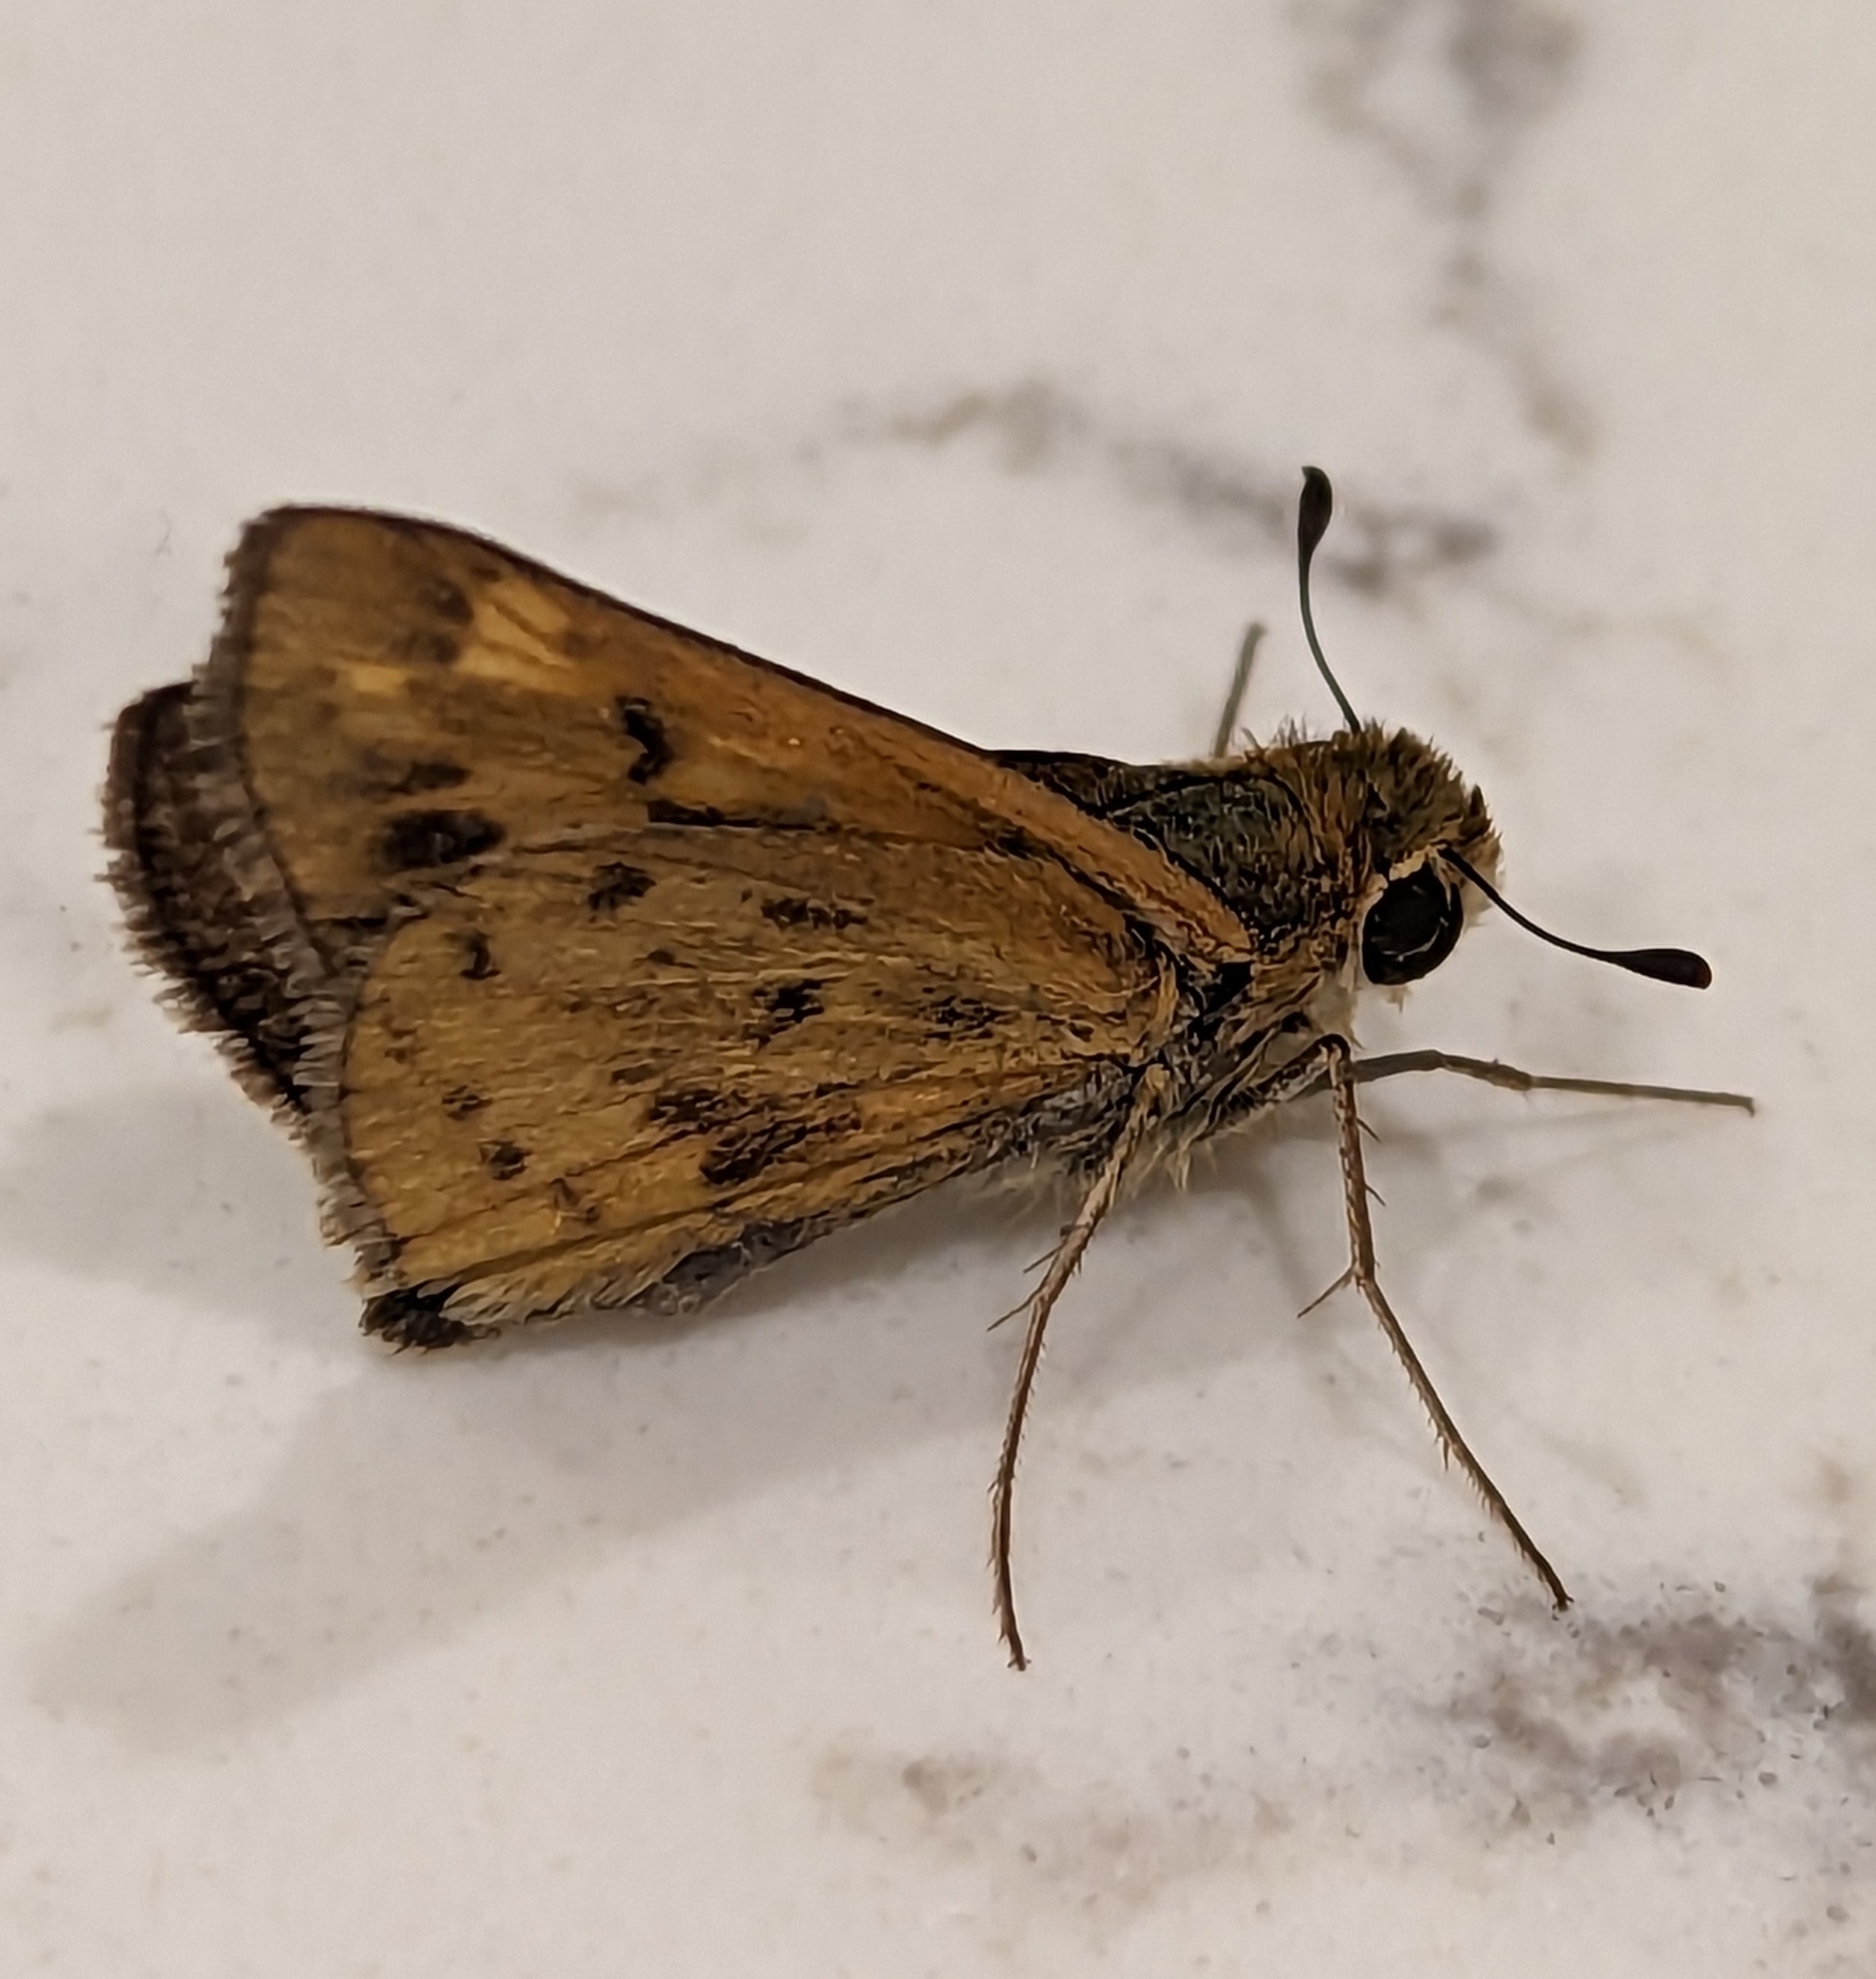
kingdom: Animalia
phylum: Arthropoda
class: Insecta
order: Lepidoptera
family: Hesperiidae
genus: Hylephila
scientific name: Hylephila phyleus
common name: Fiery skipper
